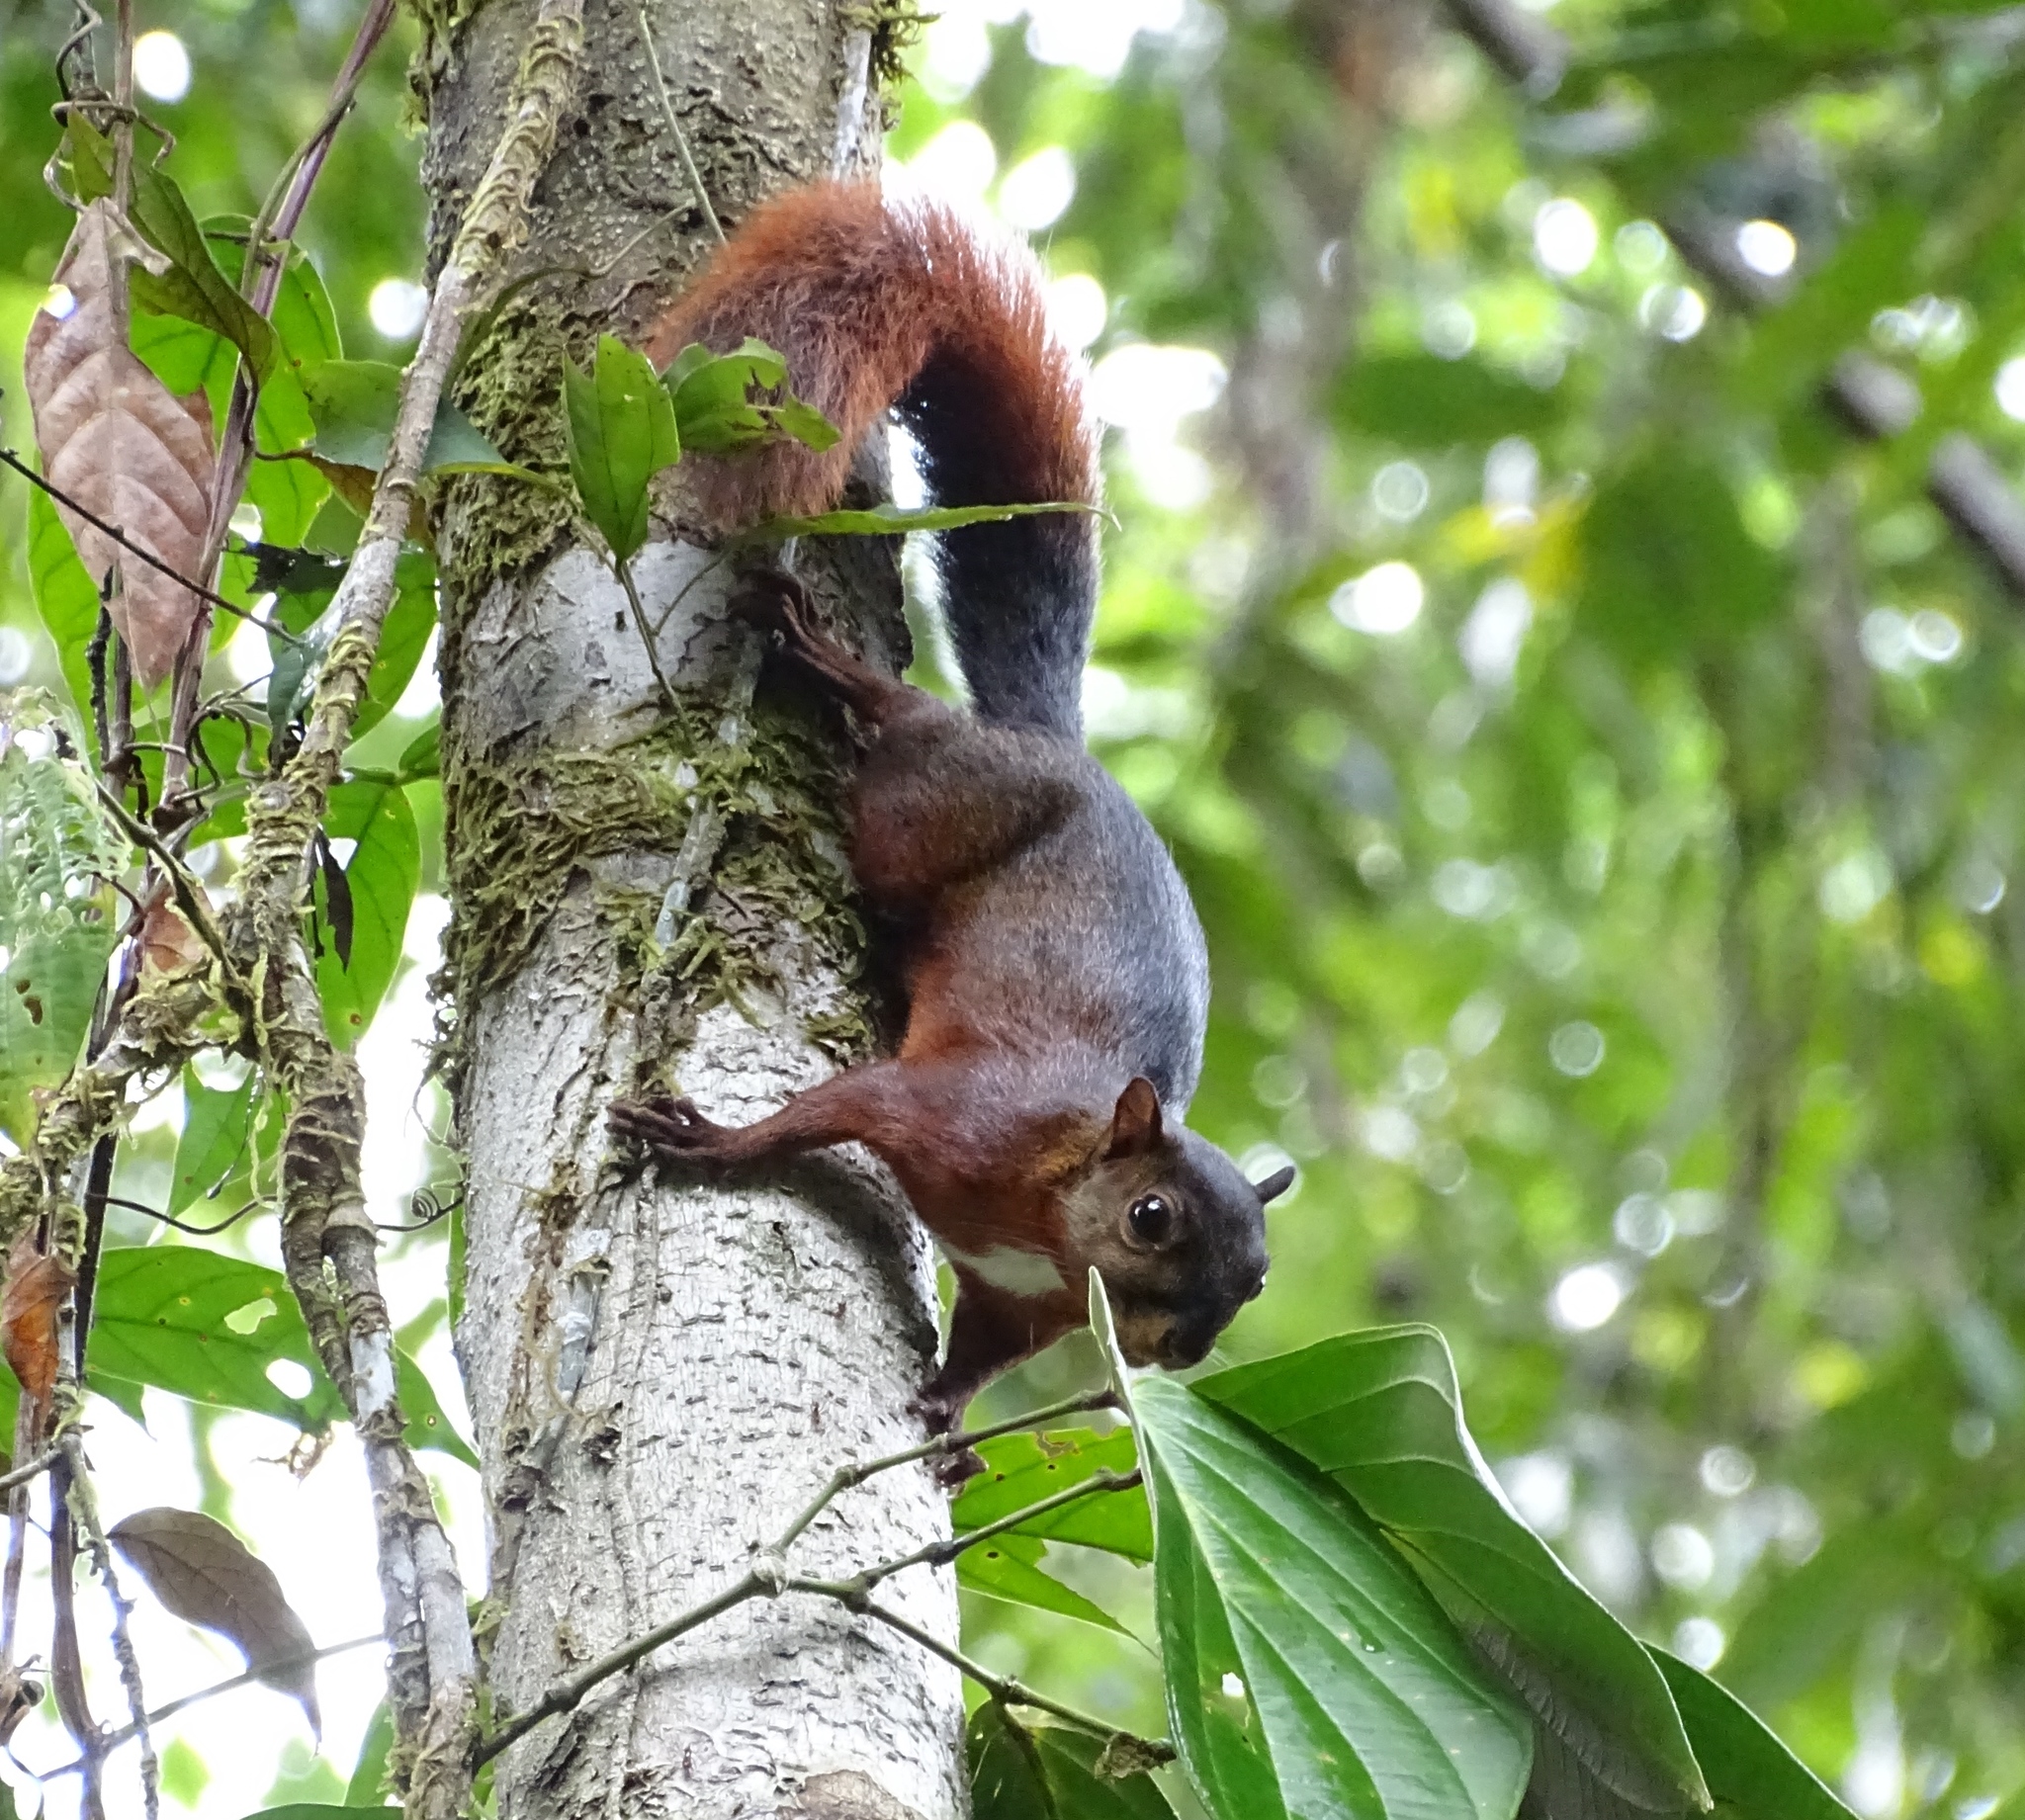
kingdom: Animalia
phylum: Chordata
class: Mammalia
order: Rodentia
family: Sciuridae
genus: Sciurus
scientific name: Sciurus granatensis
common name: Red-tailed squirrel
